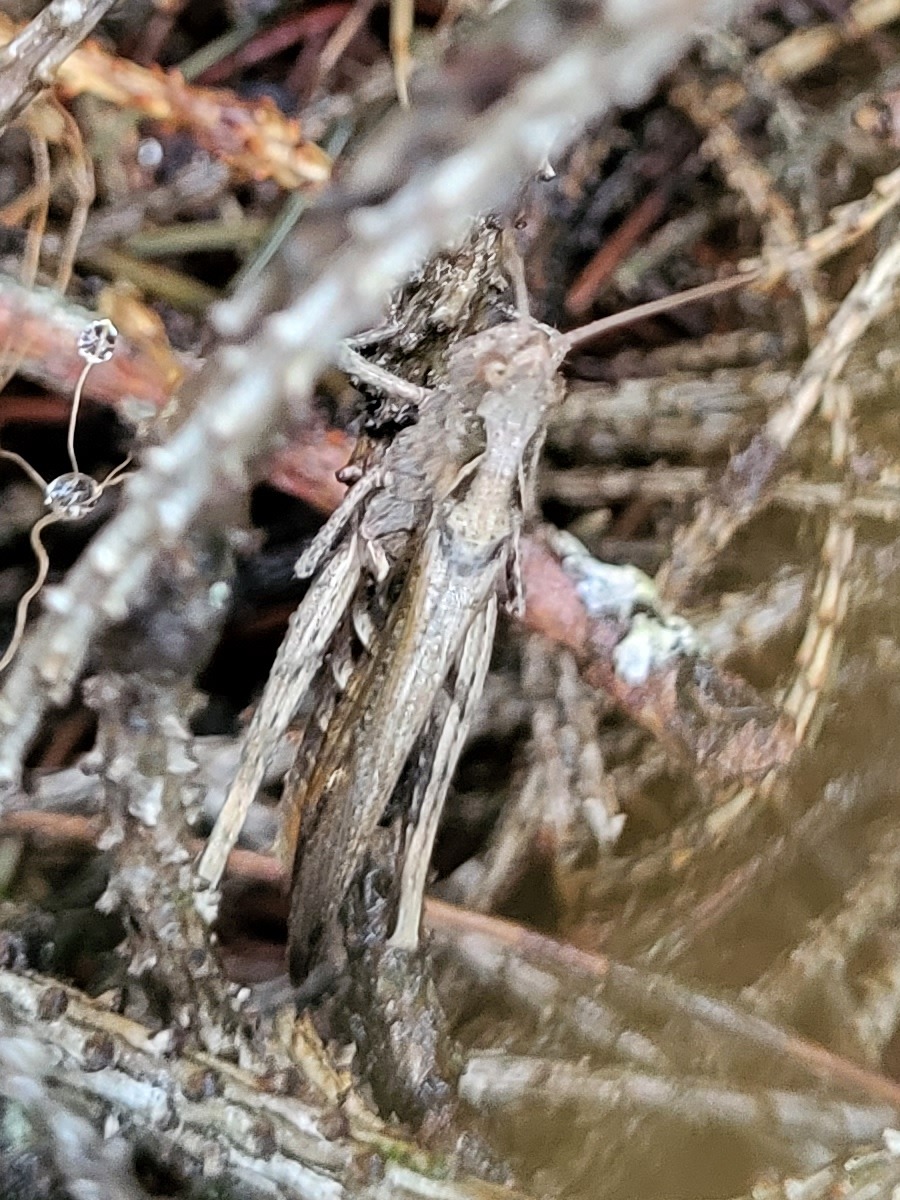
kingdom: Animalia
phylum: Arthropoda
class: Insecta
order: Orthoptera
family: Acrididae
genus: Glyptobothrus
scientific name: Glyptobothrus
